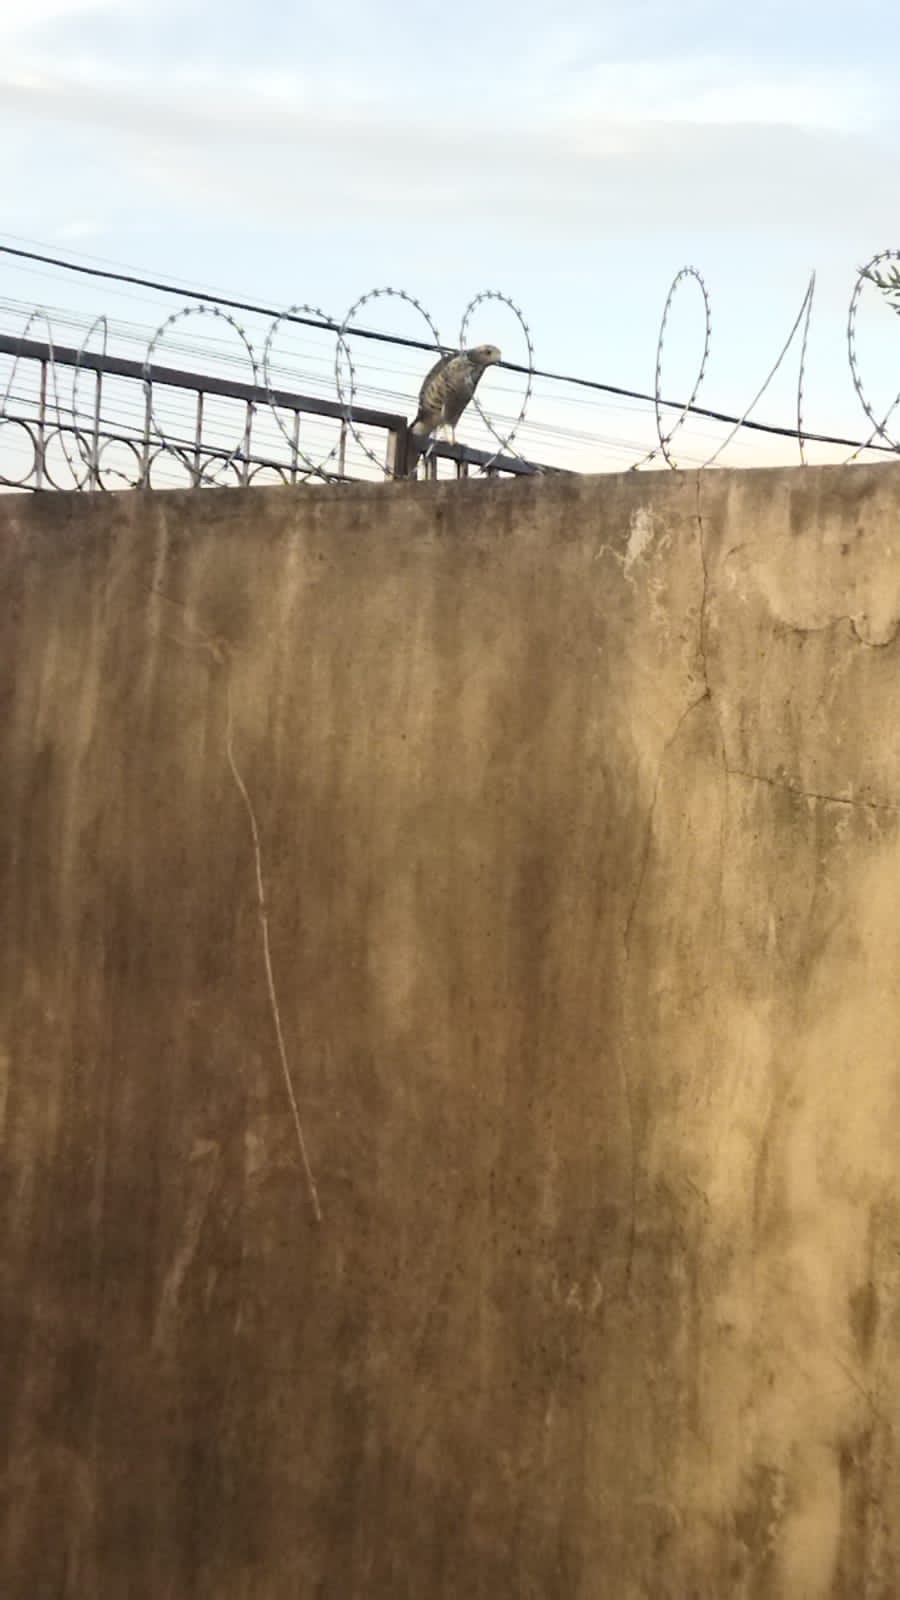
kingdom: Animalia
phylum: Chordata
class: Aves
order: Accipitriformes
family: Accipitridae
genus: Rupornis
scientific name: Rupornis magnirostris
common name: Roadside hawk
